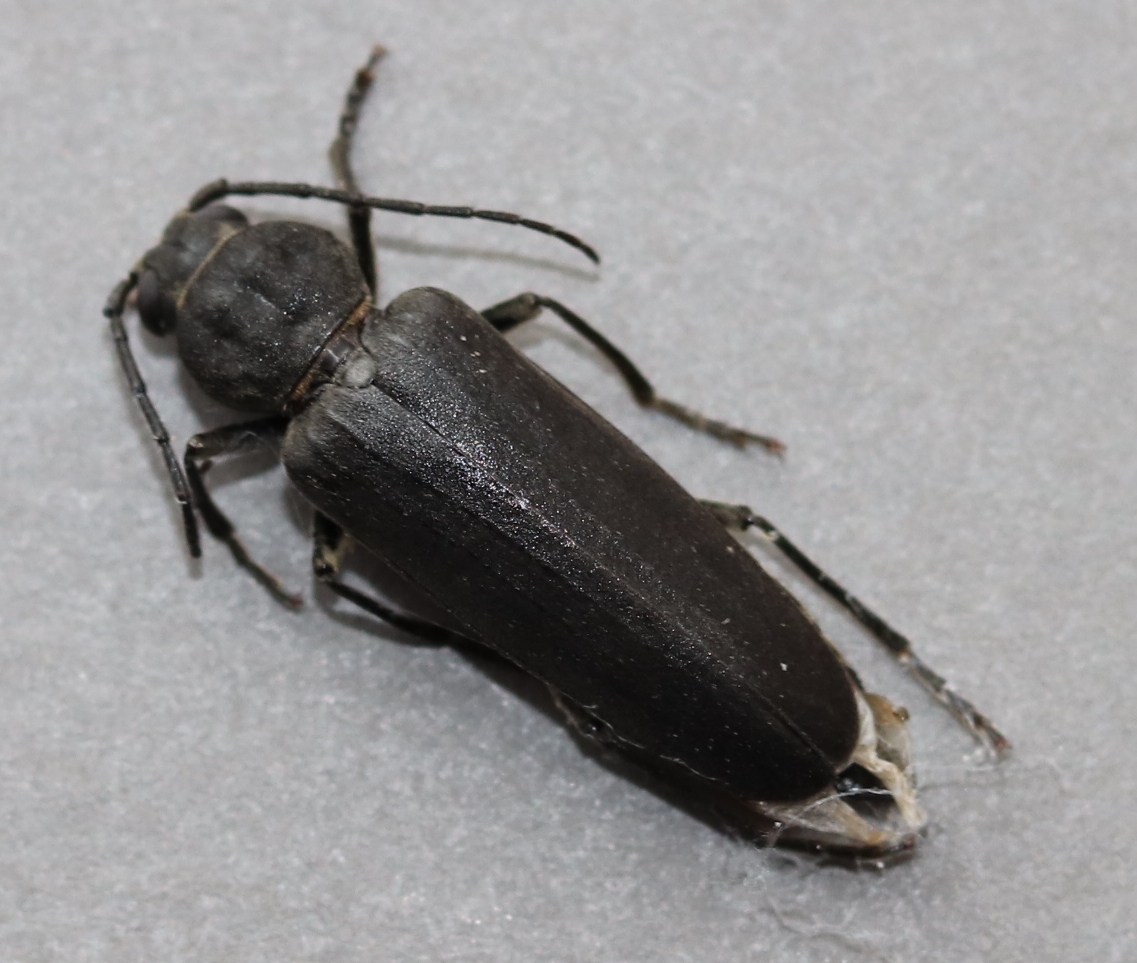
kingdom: Animalia
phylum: Arthropoda
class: Insecta
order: Coleoptera
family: Cerambycidae
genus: Arhopalus
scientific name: Arhopalus ferus
